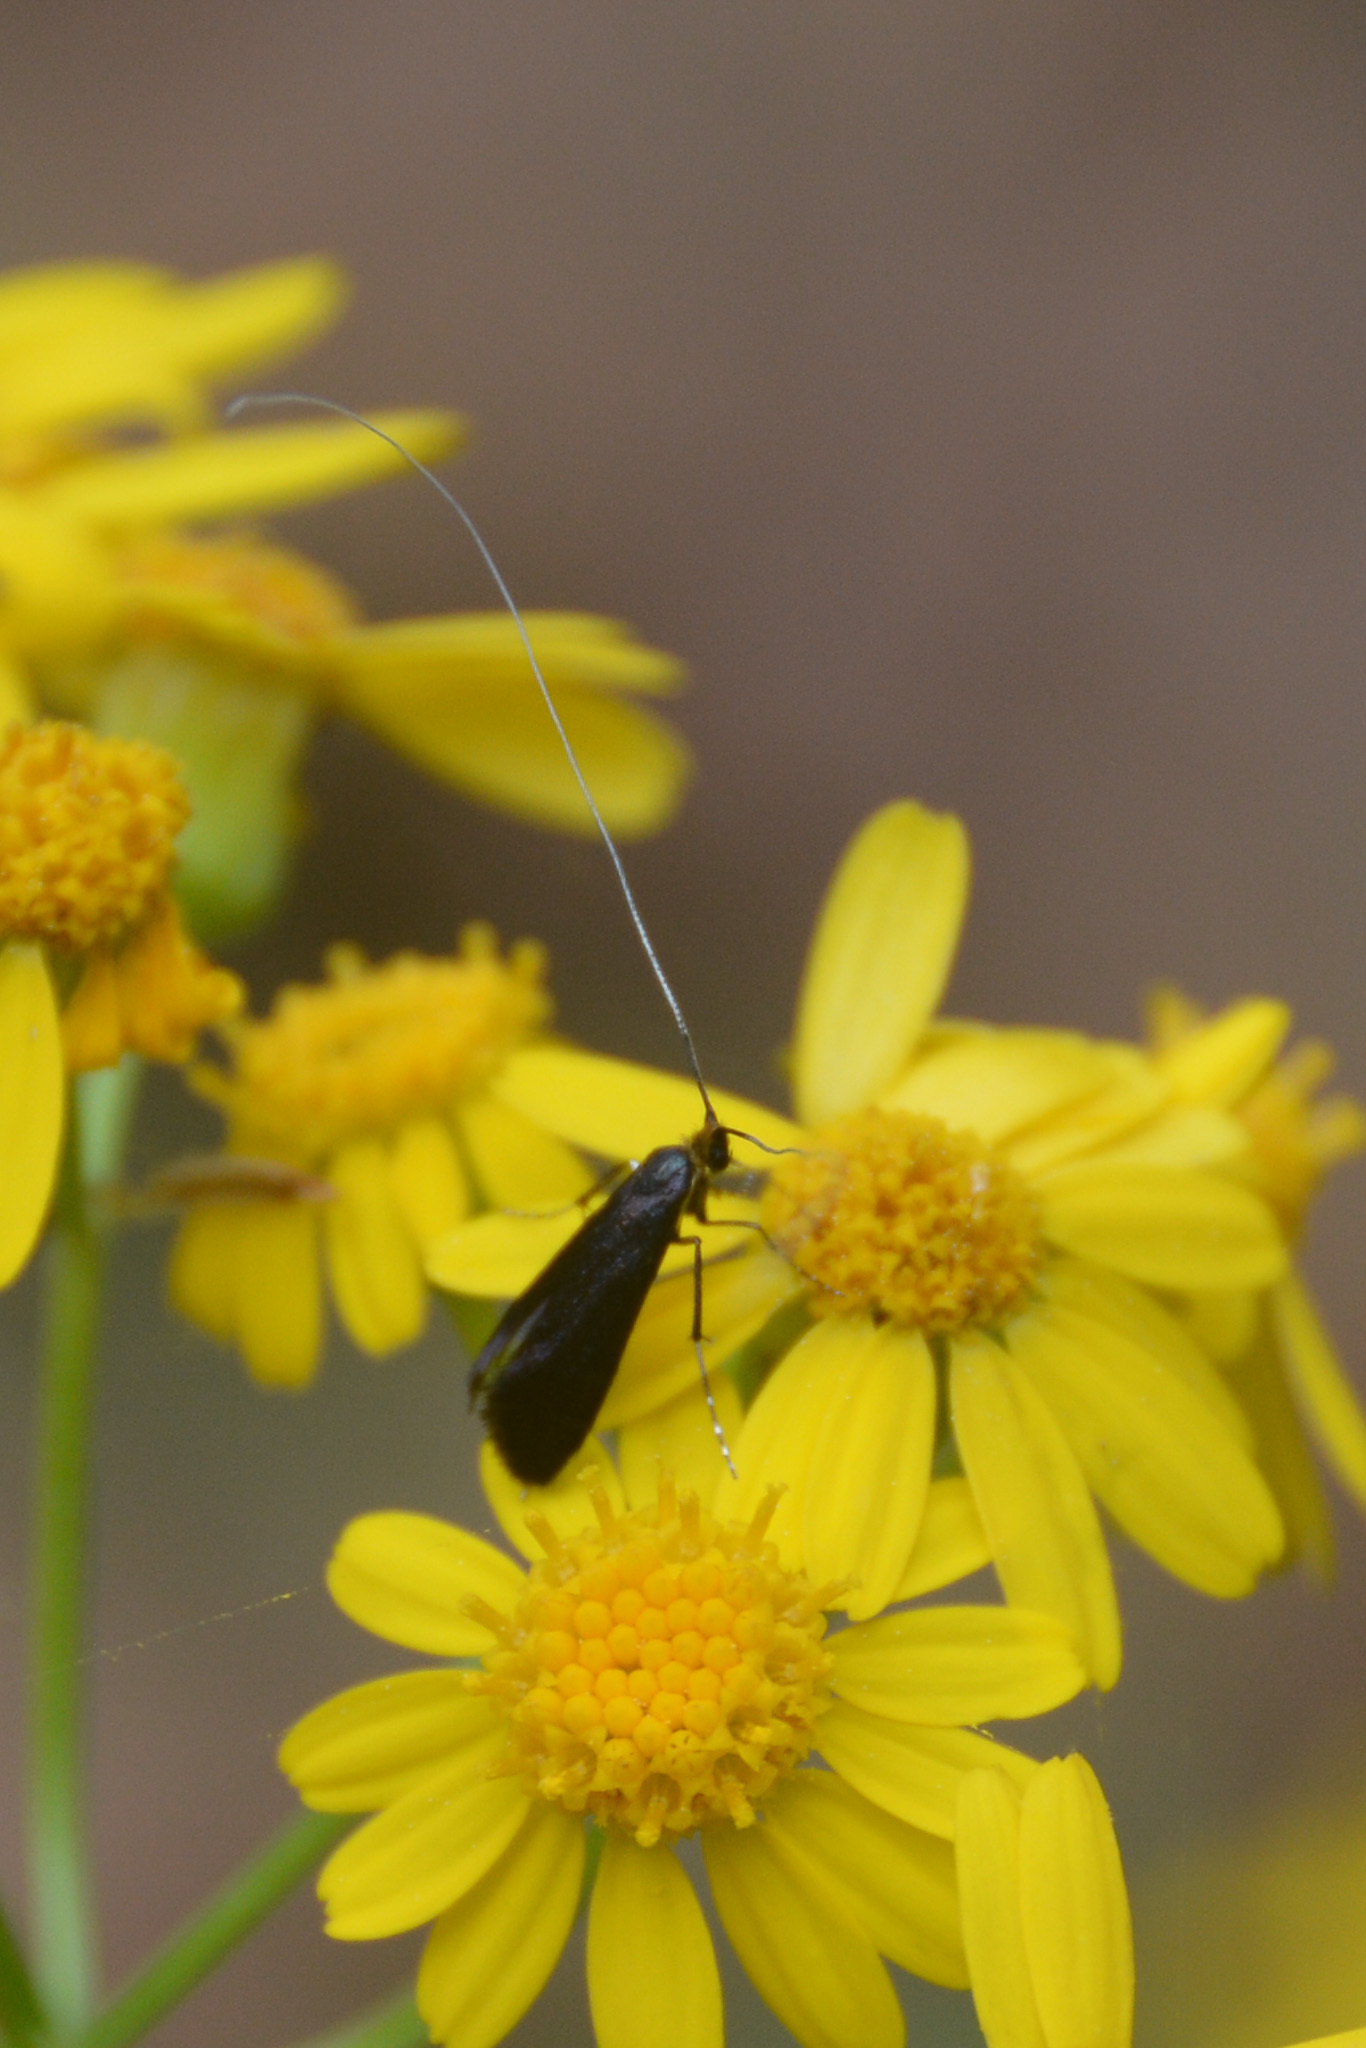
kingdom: Animalia
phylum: Arthropoda
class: Insecta
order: Lepidoptera
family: Adelidae
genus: Adela
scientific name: Adela caeruleella
